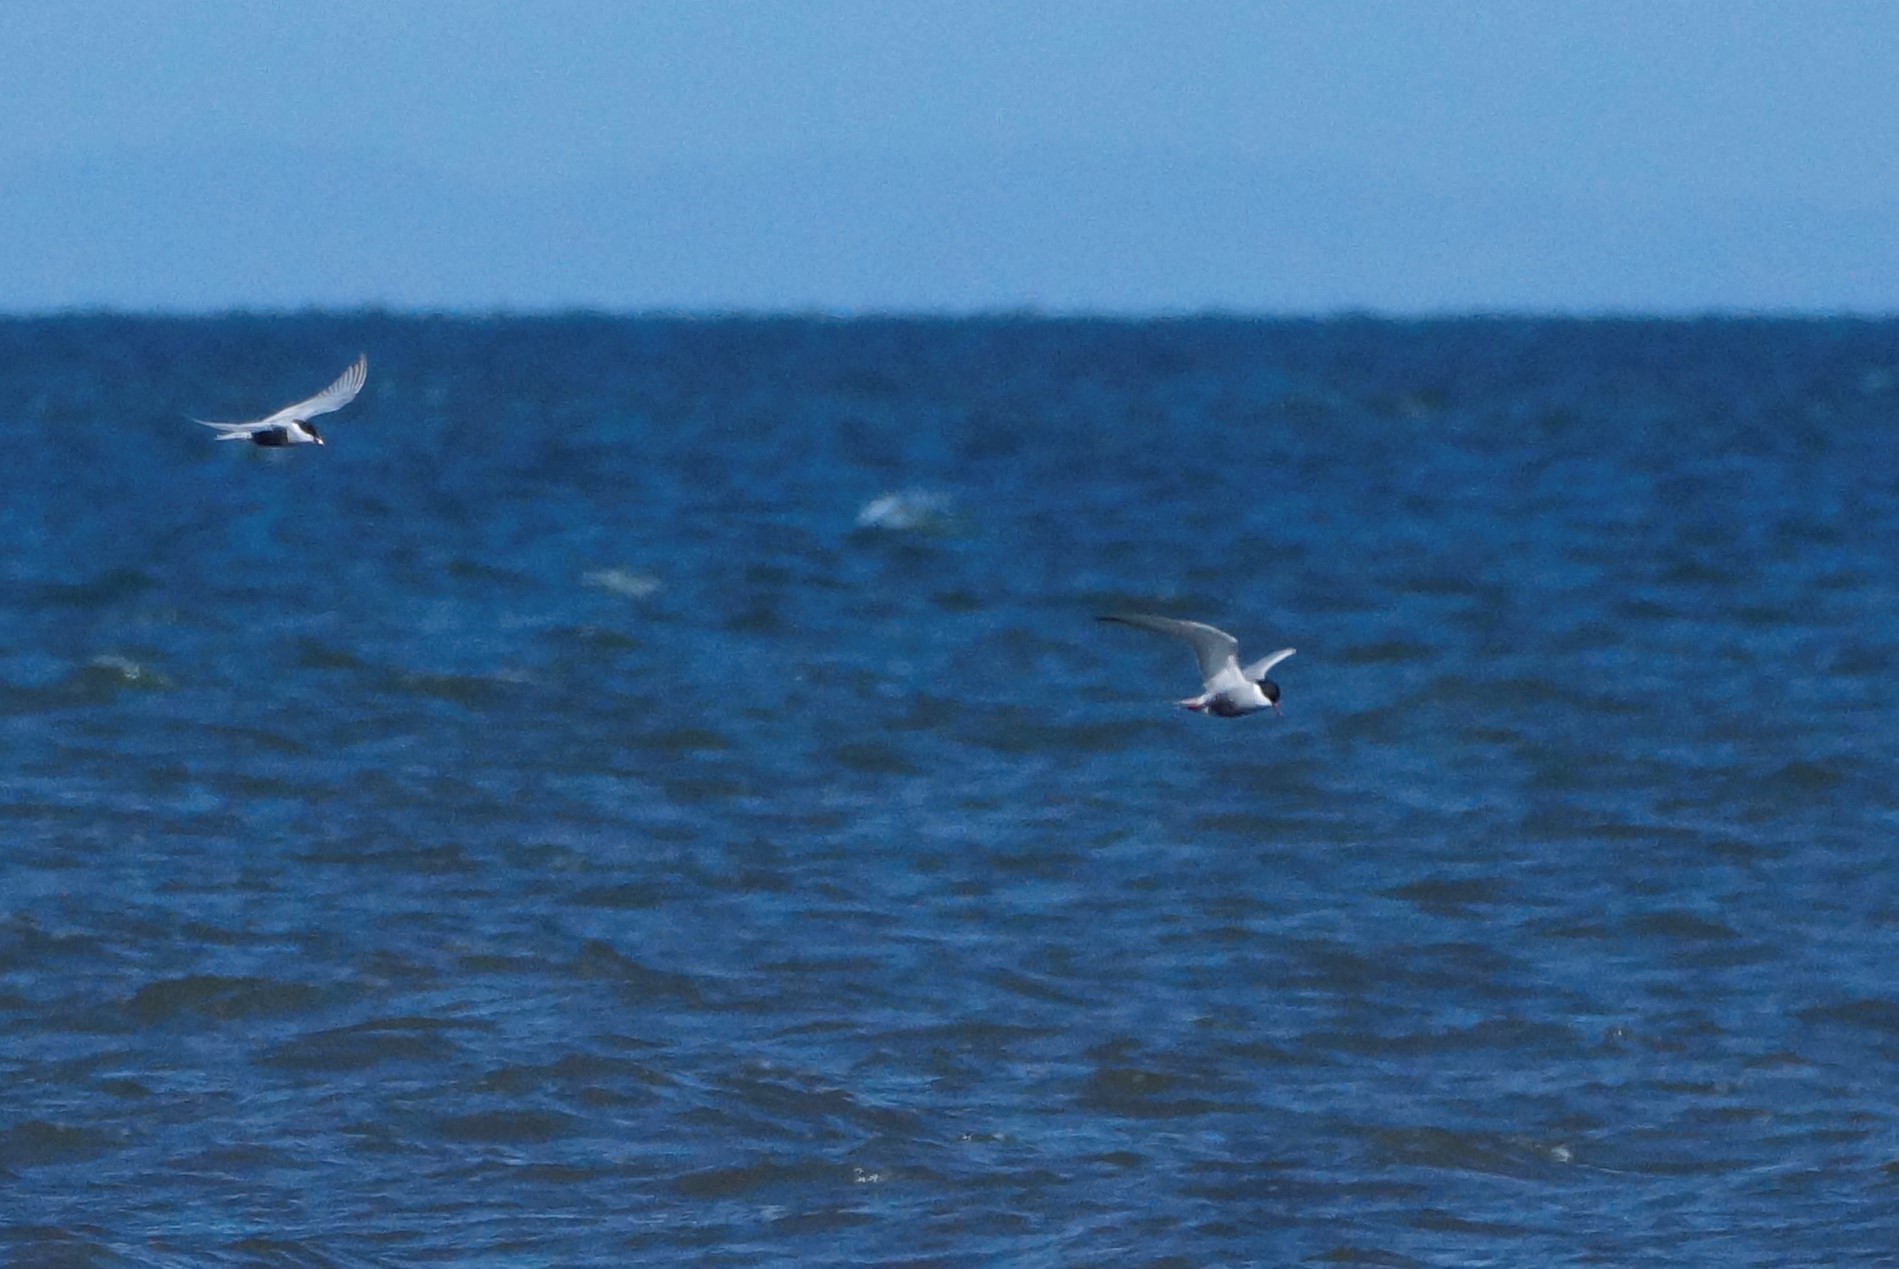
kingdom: Animalia
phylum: Chordata
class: Aves
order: Charadriiformes
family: Laridae
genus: Chlidonias
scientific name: Chlidonias hybrida
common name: Whiskered tern
